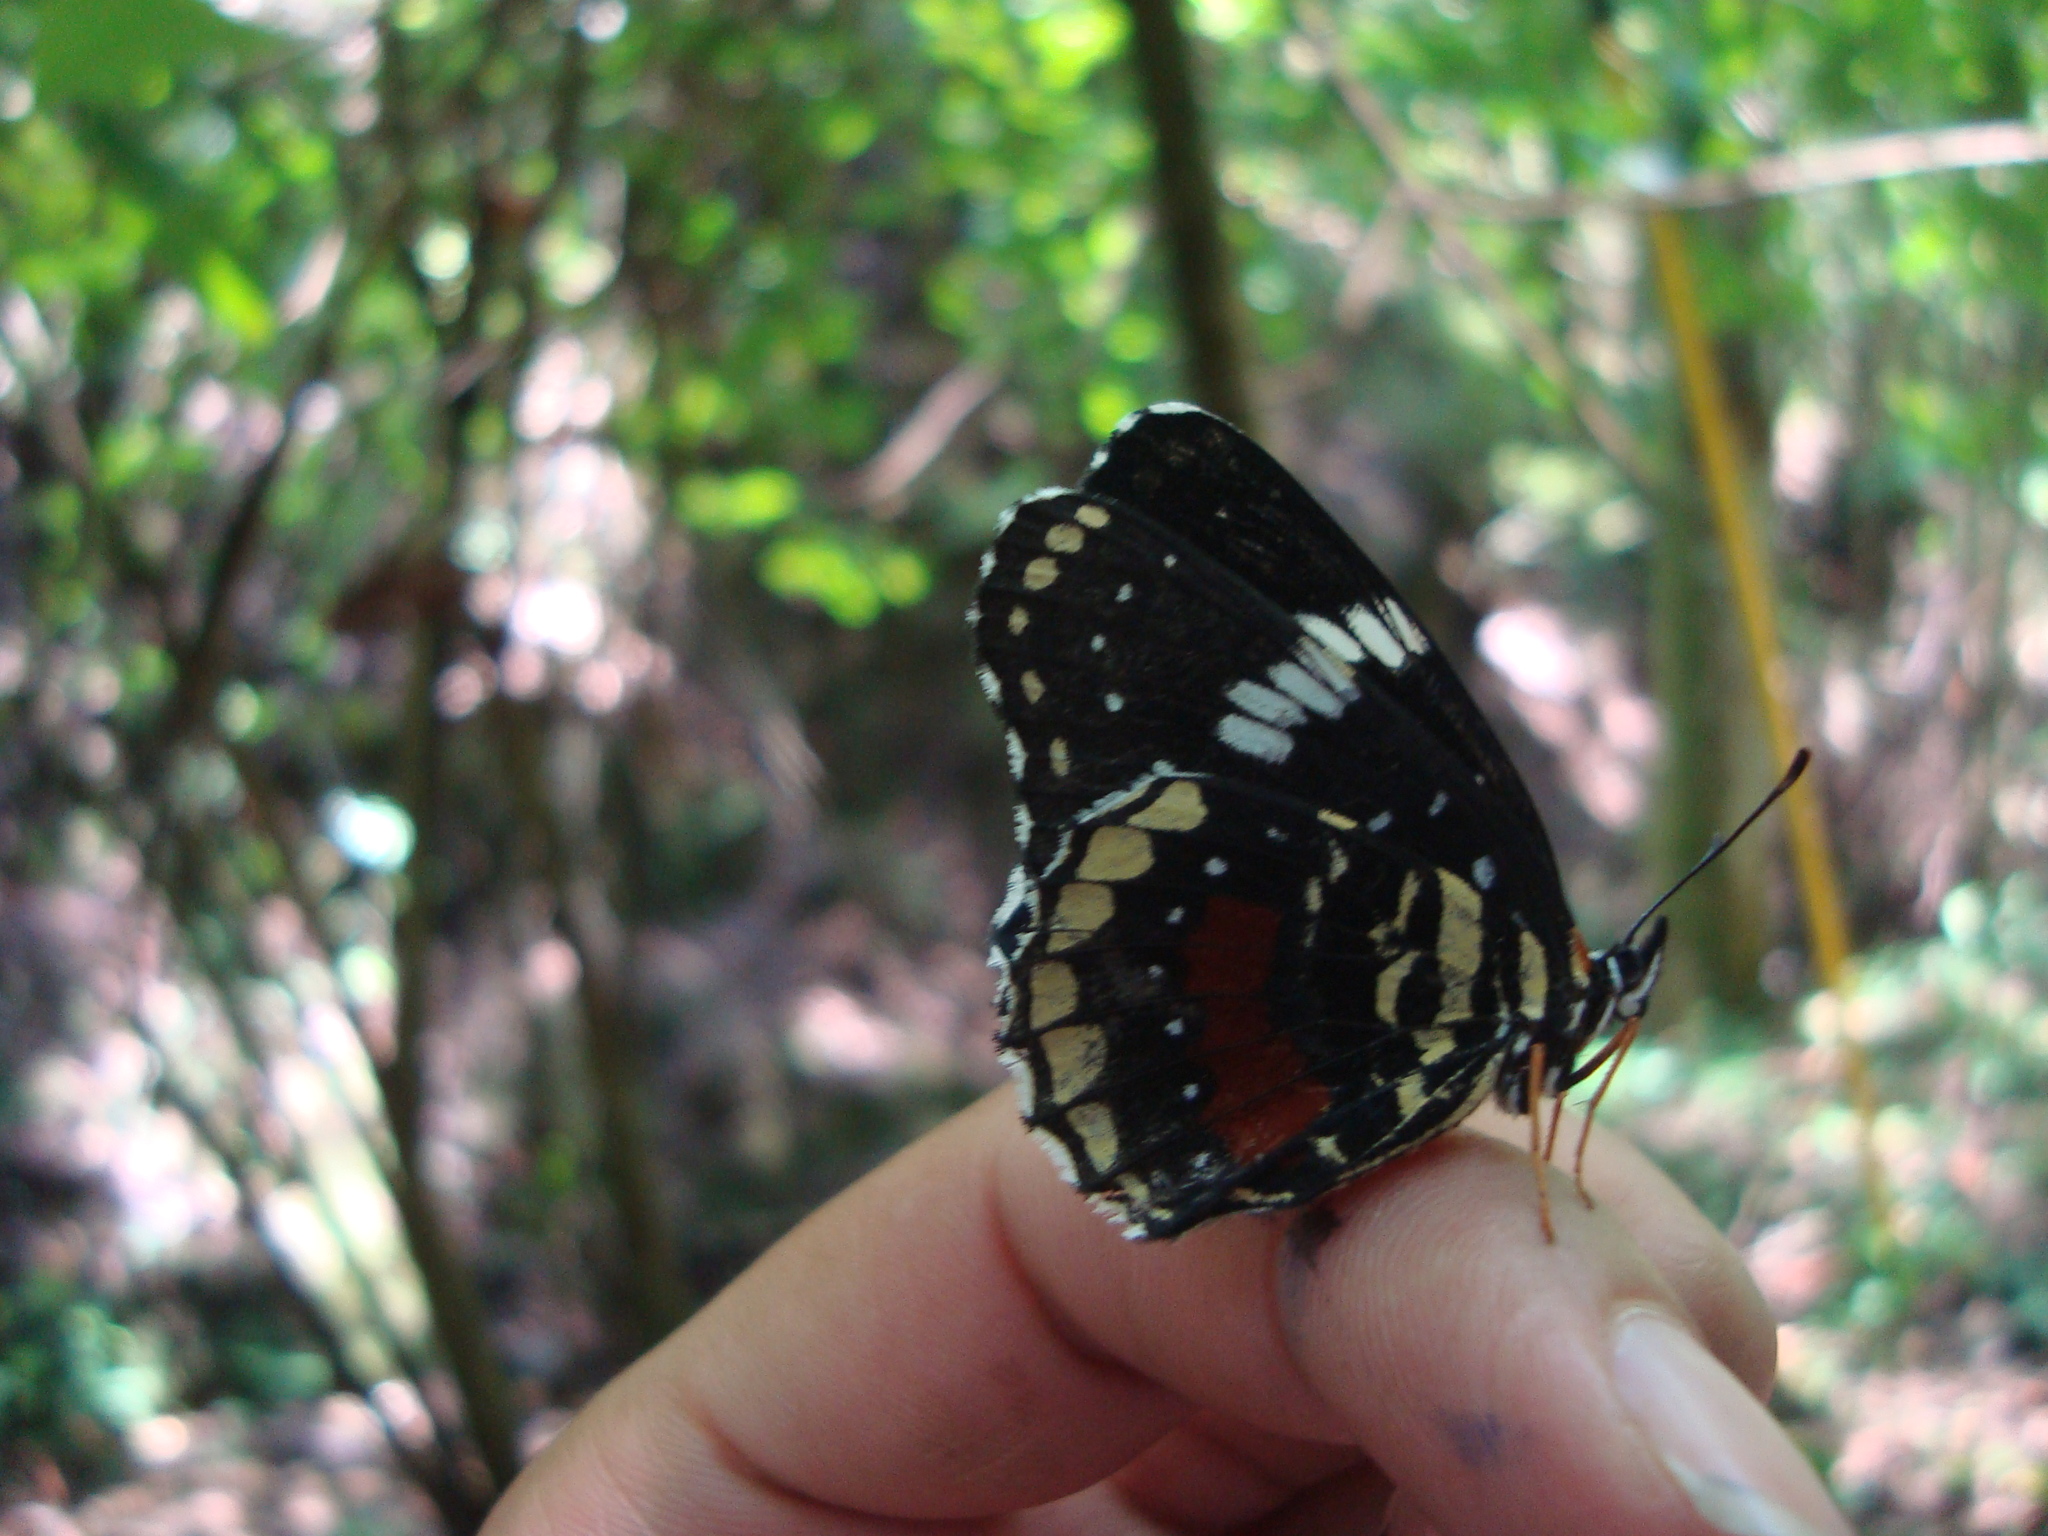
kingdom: Animalia
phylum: Arthropoda
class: Insecta
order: Lepidoptera
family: Nymphalidae
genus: Chlosyne
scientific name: Chlosyne janais
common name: Crimson patch
